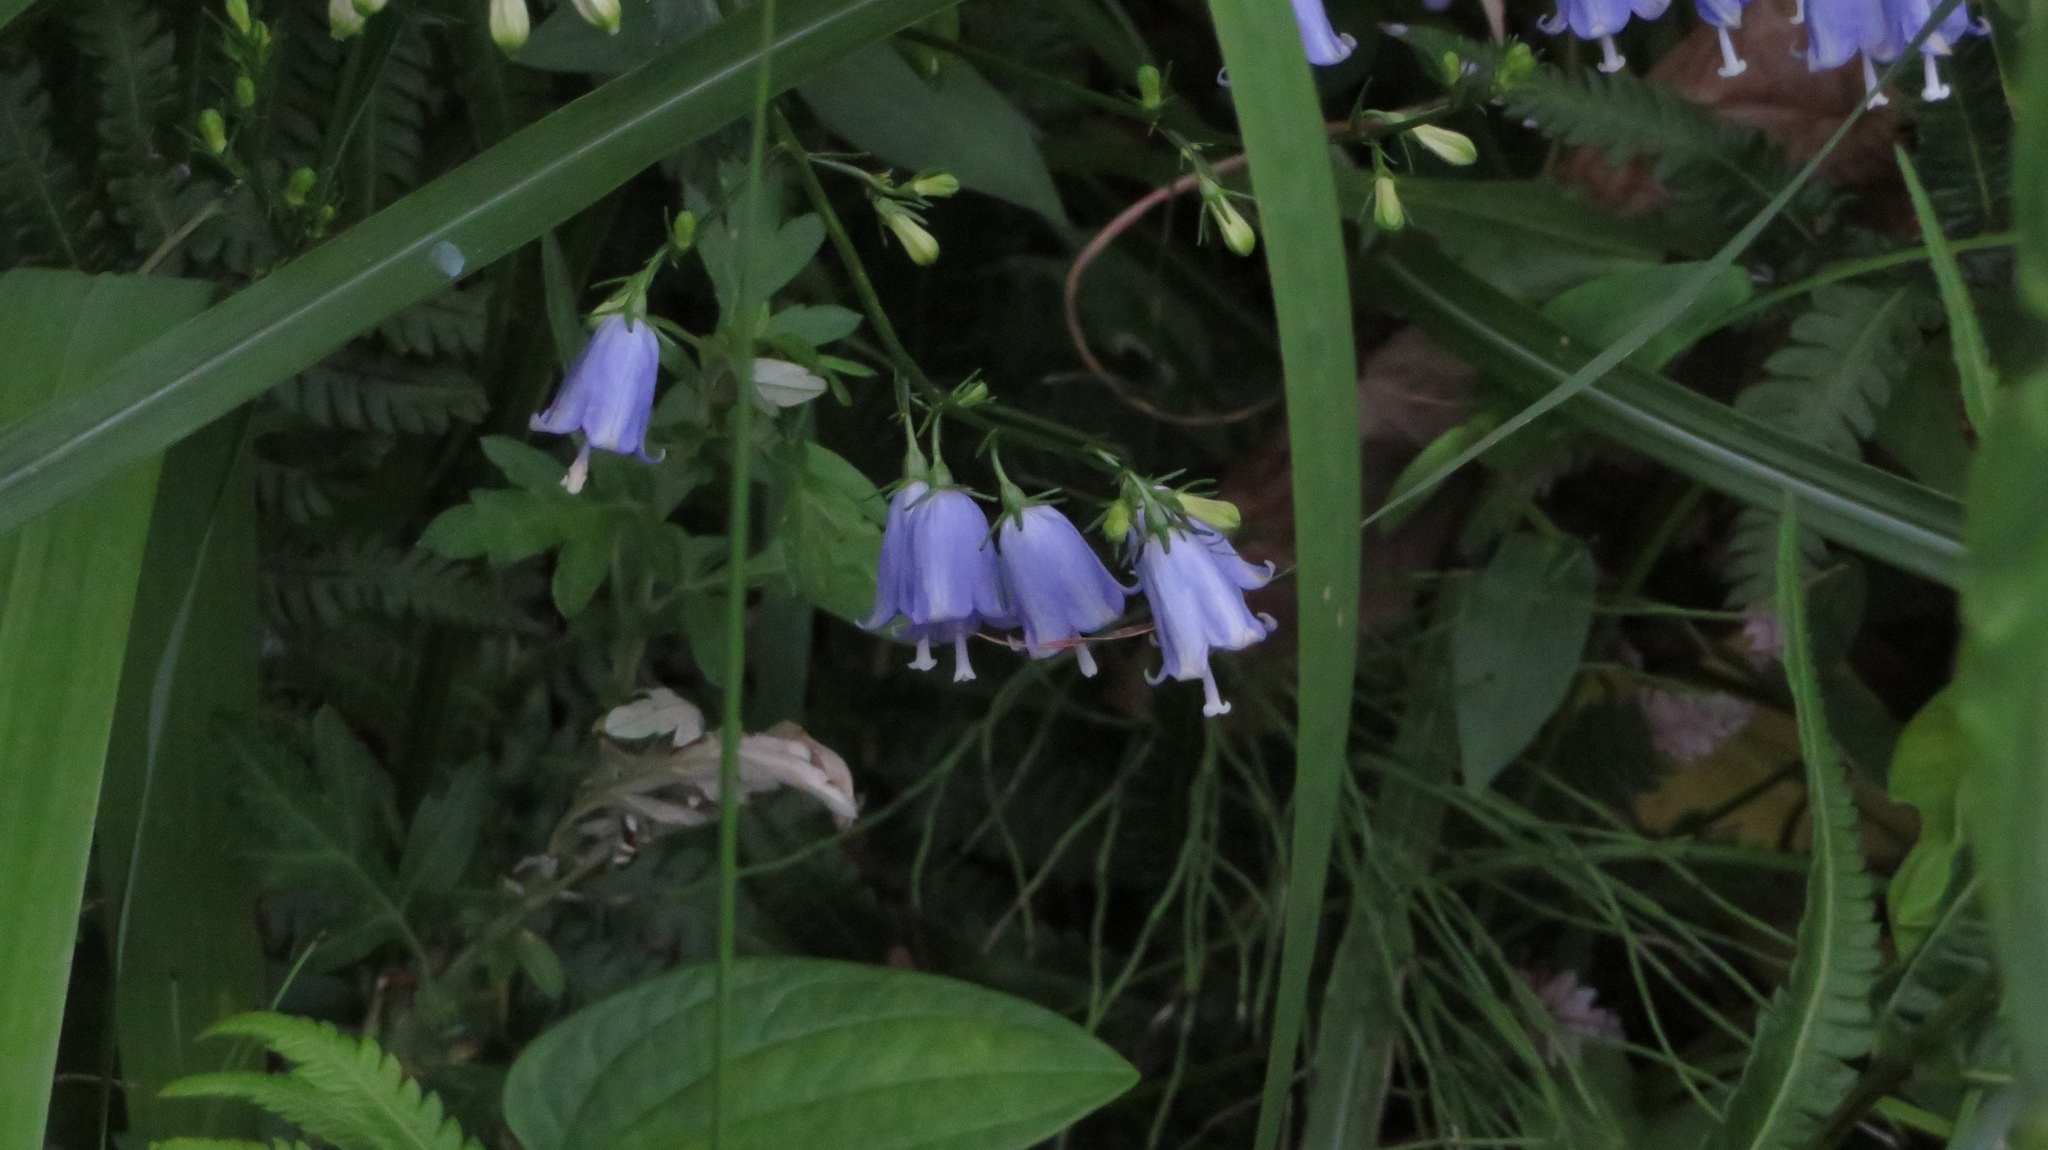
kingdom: Plantae
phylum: Tracheophyta
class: Magnoliopsida
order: Asterales
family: Campanulaceae
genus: Adenophora
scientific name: Adenophora triphylla
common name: Giant-bellflower
